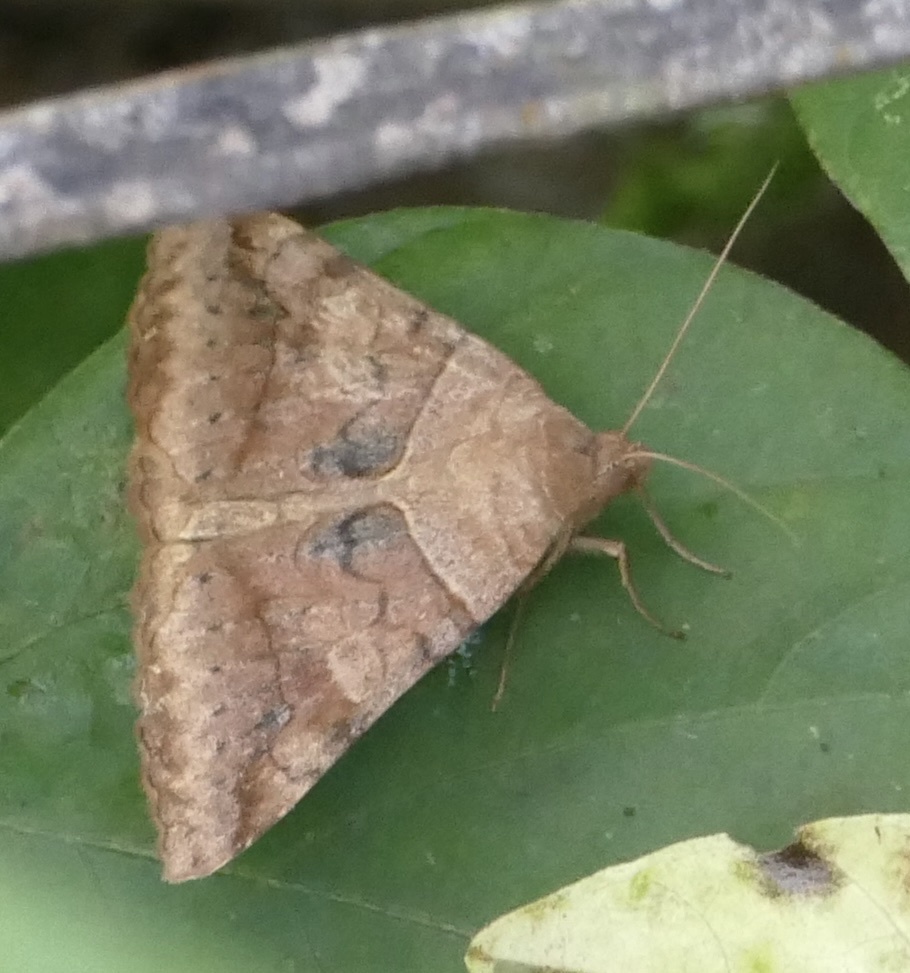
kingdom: Animalia
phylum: Arthropoda
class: Insecta
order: Lepidoptera
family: Erebidae
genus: Mocis
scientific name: Mocis mayeri
